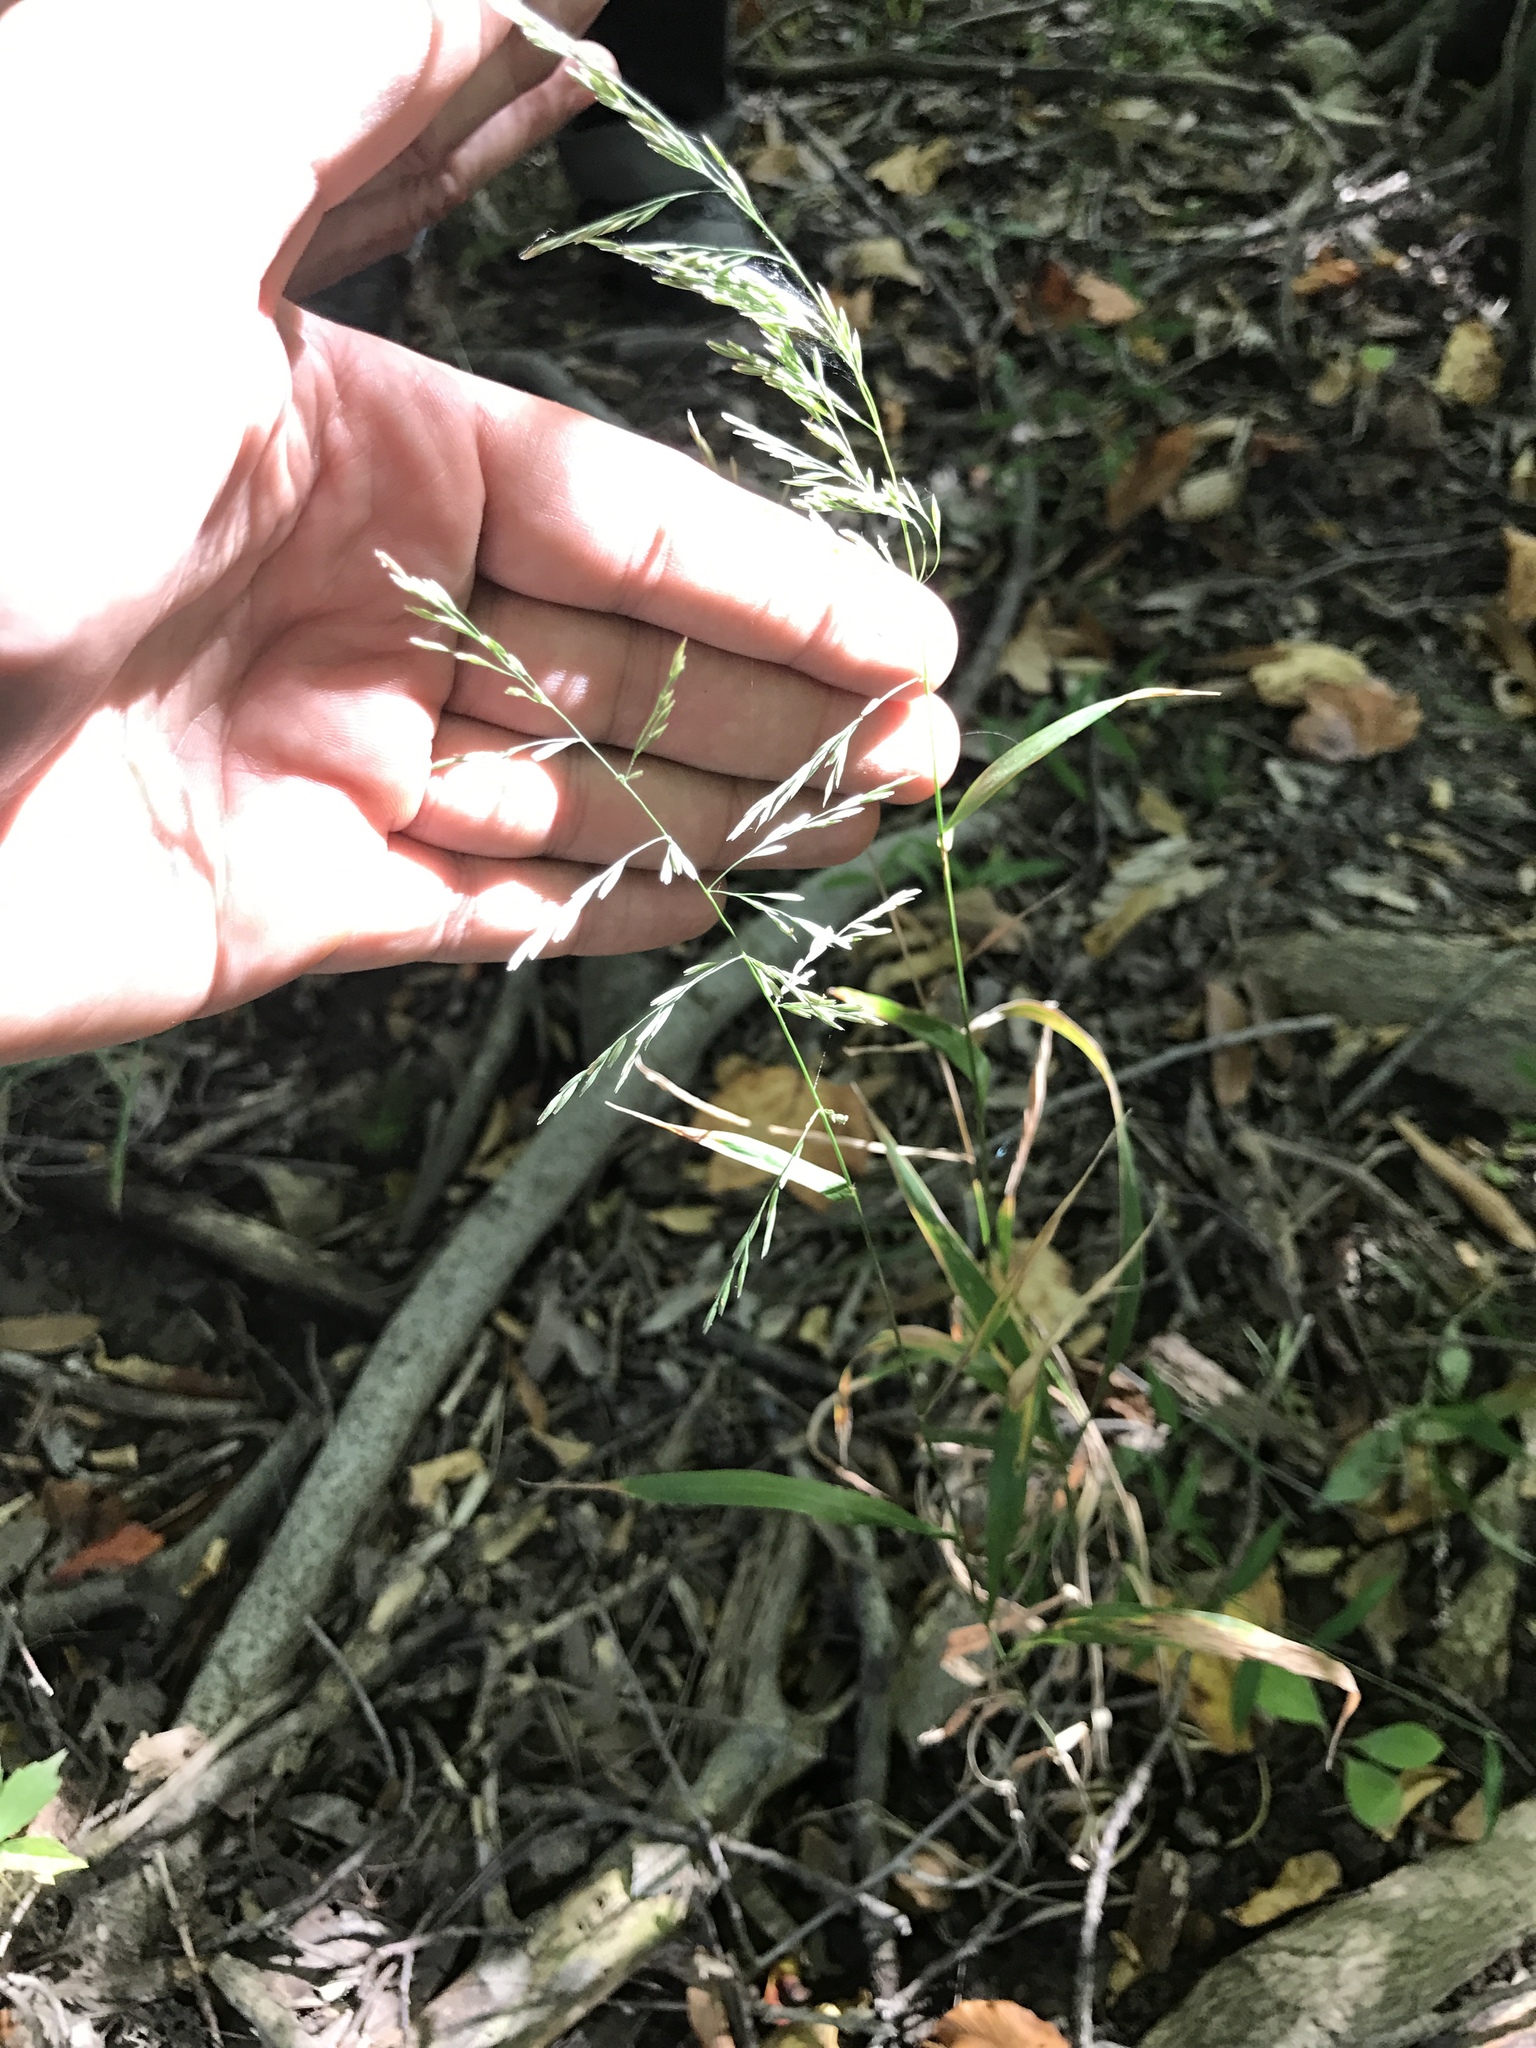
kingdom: Plantae
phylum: Tracheophyta
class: Liliopsida
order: Poales
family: Poaceae
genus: Cinna
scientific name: Cinna arundinacea
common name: Stout woodreed
